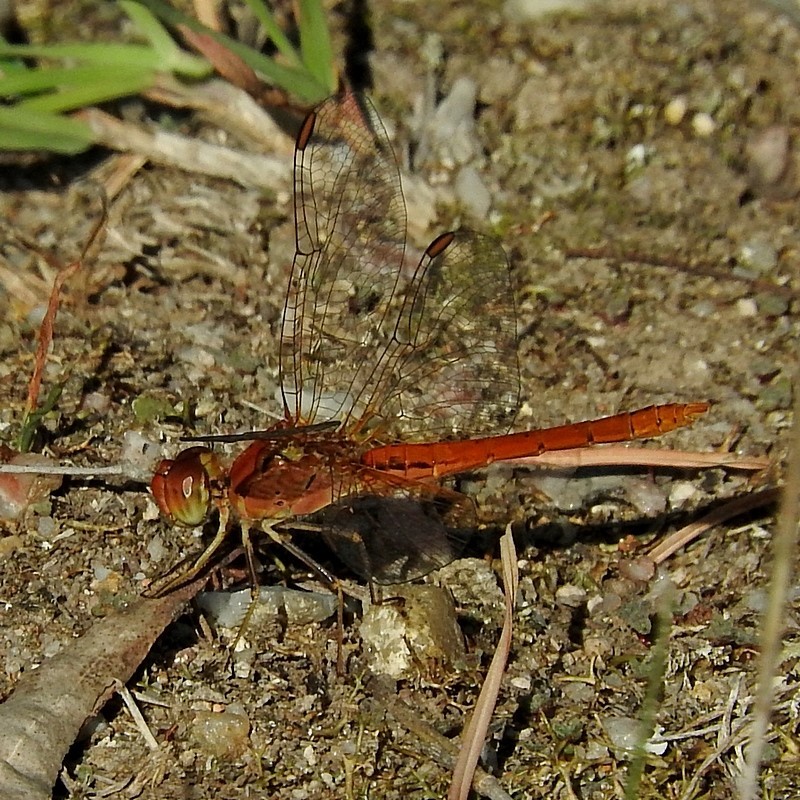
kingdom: Animalia
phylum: Arthropoda
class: Insecta
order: Odonata
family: Libellulidae
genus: Diplacodes
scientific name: Diplacodes haematodes
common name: Scarlet percher
